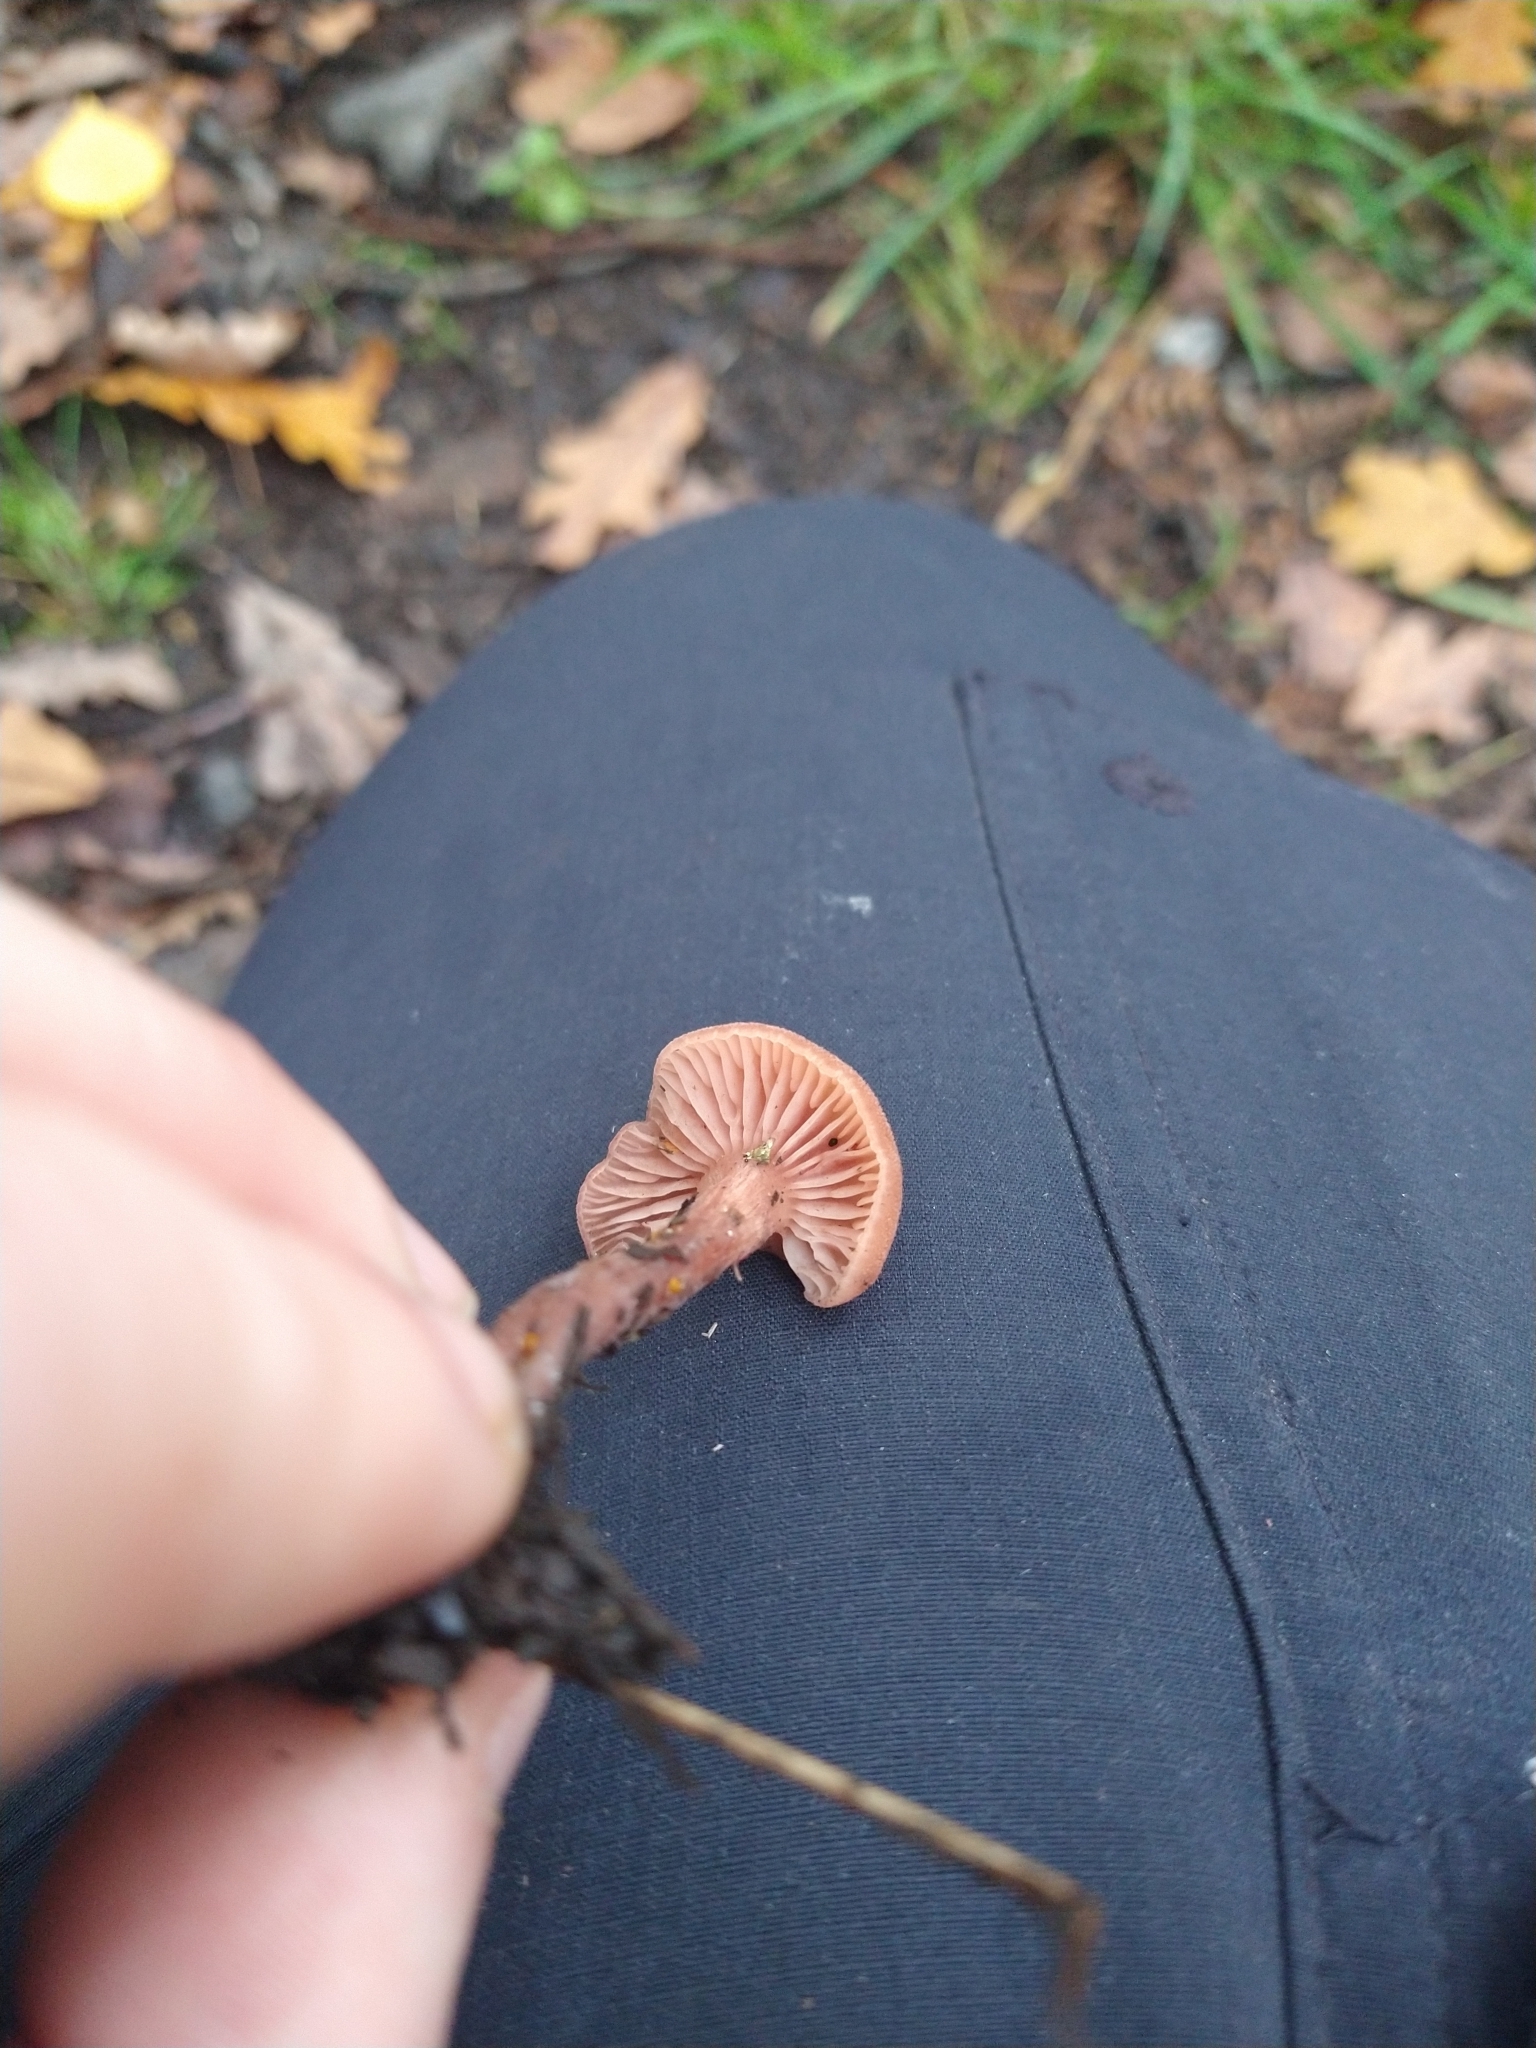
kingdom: Fungi
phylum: Basidiomycota
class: Agaricomycetes
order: Agaricales
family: Hydnangiaceae
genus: Laccaria
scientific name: Laccaria laccata
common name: Deceiver
